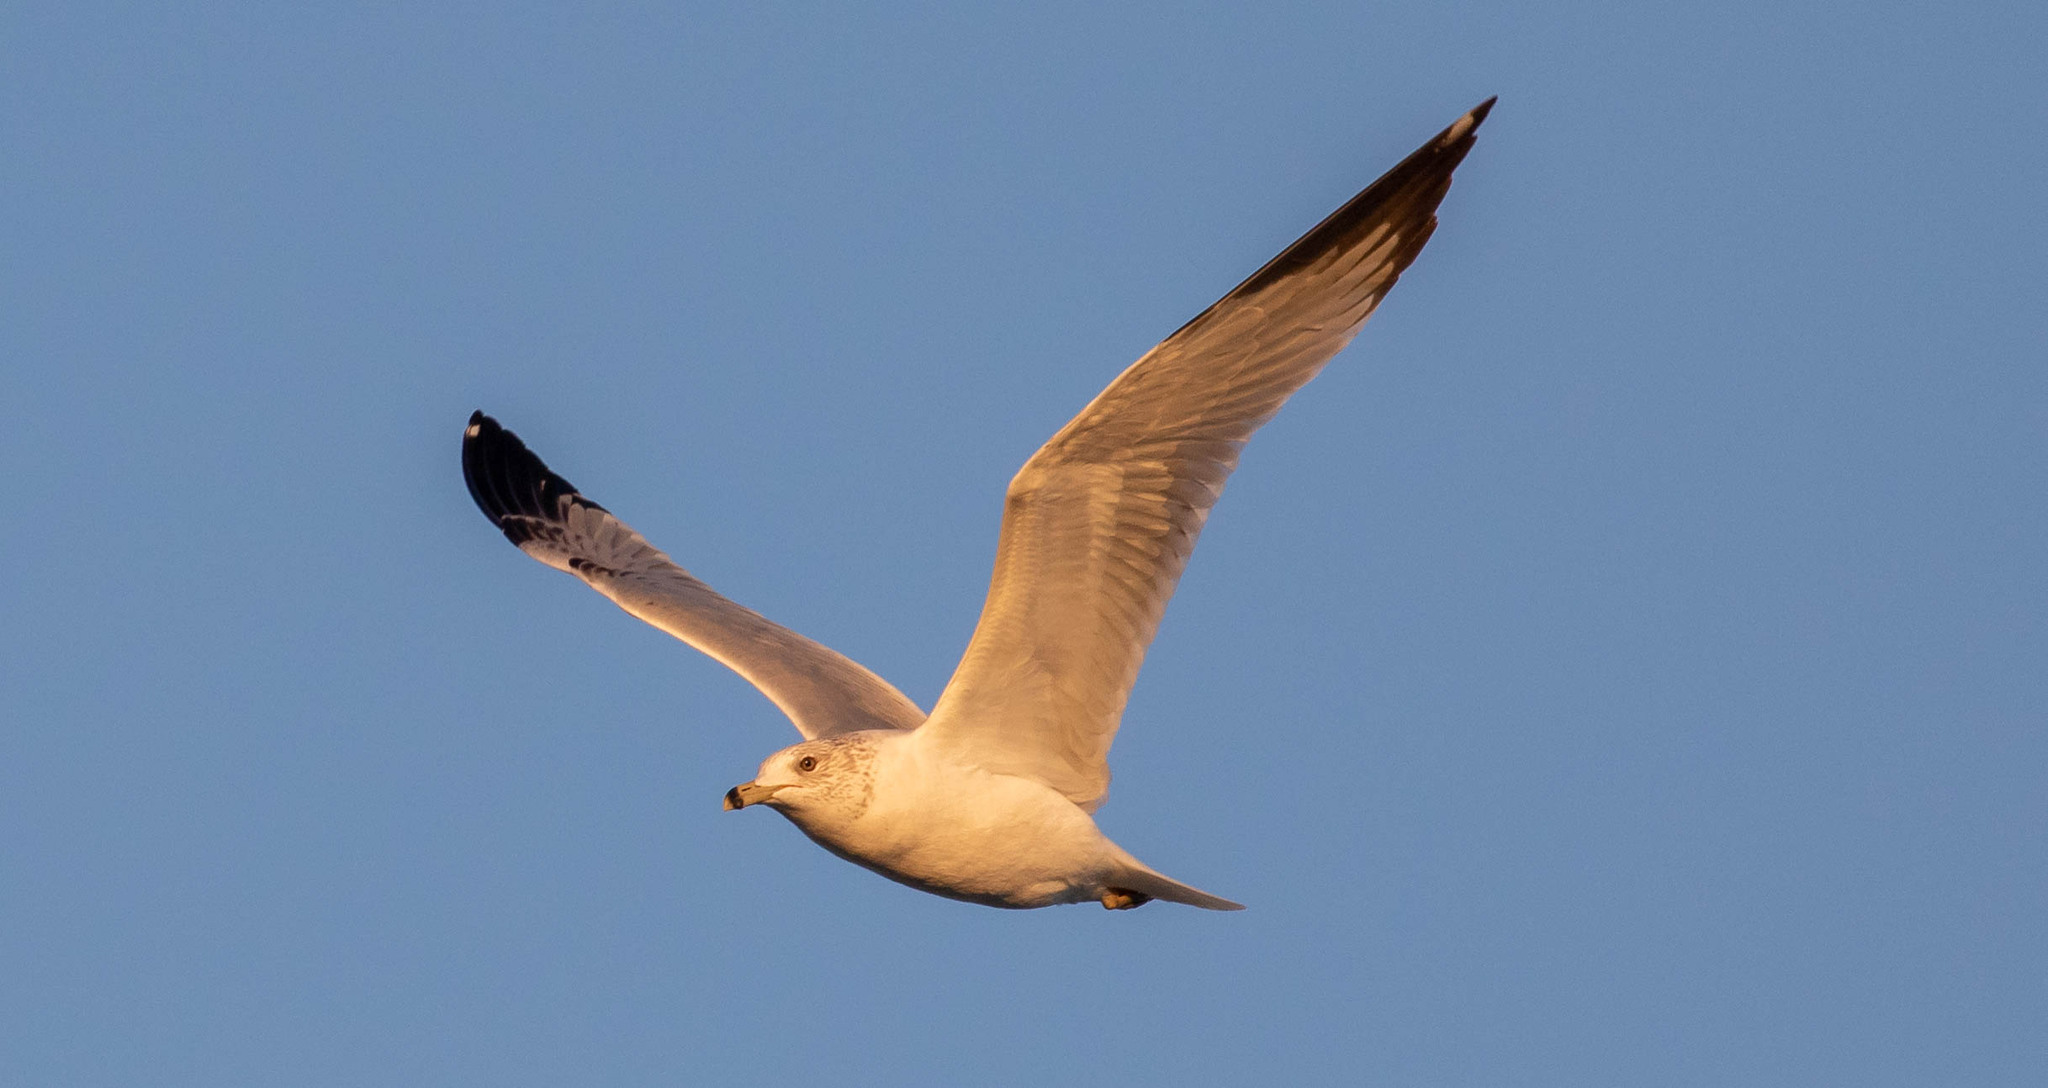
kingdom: Animalia
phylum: Chordata
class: Aves
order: Charadriiformes
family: Laridae
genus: Larus
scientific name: Larus delawarensis
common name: Ring-billed gull
